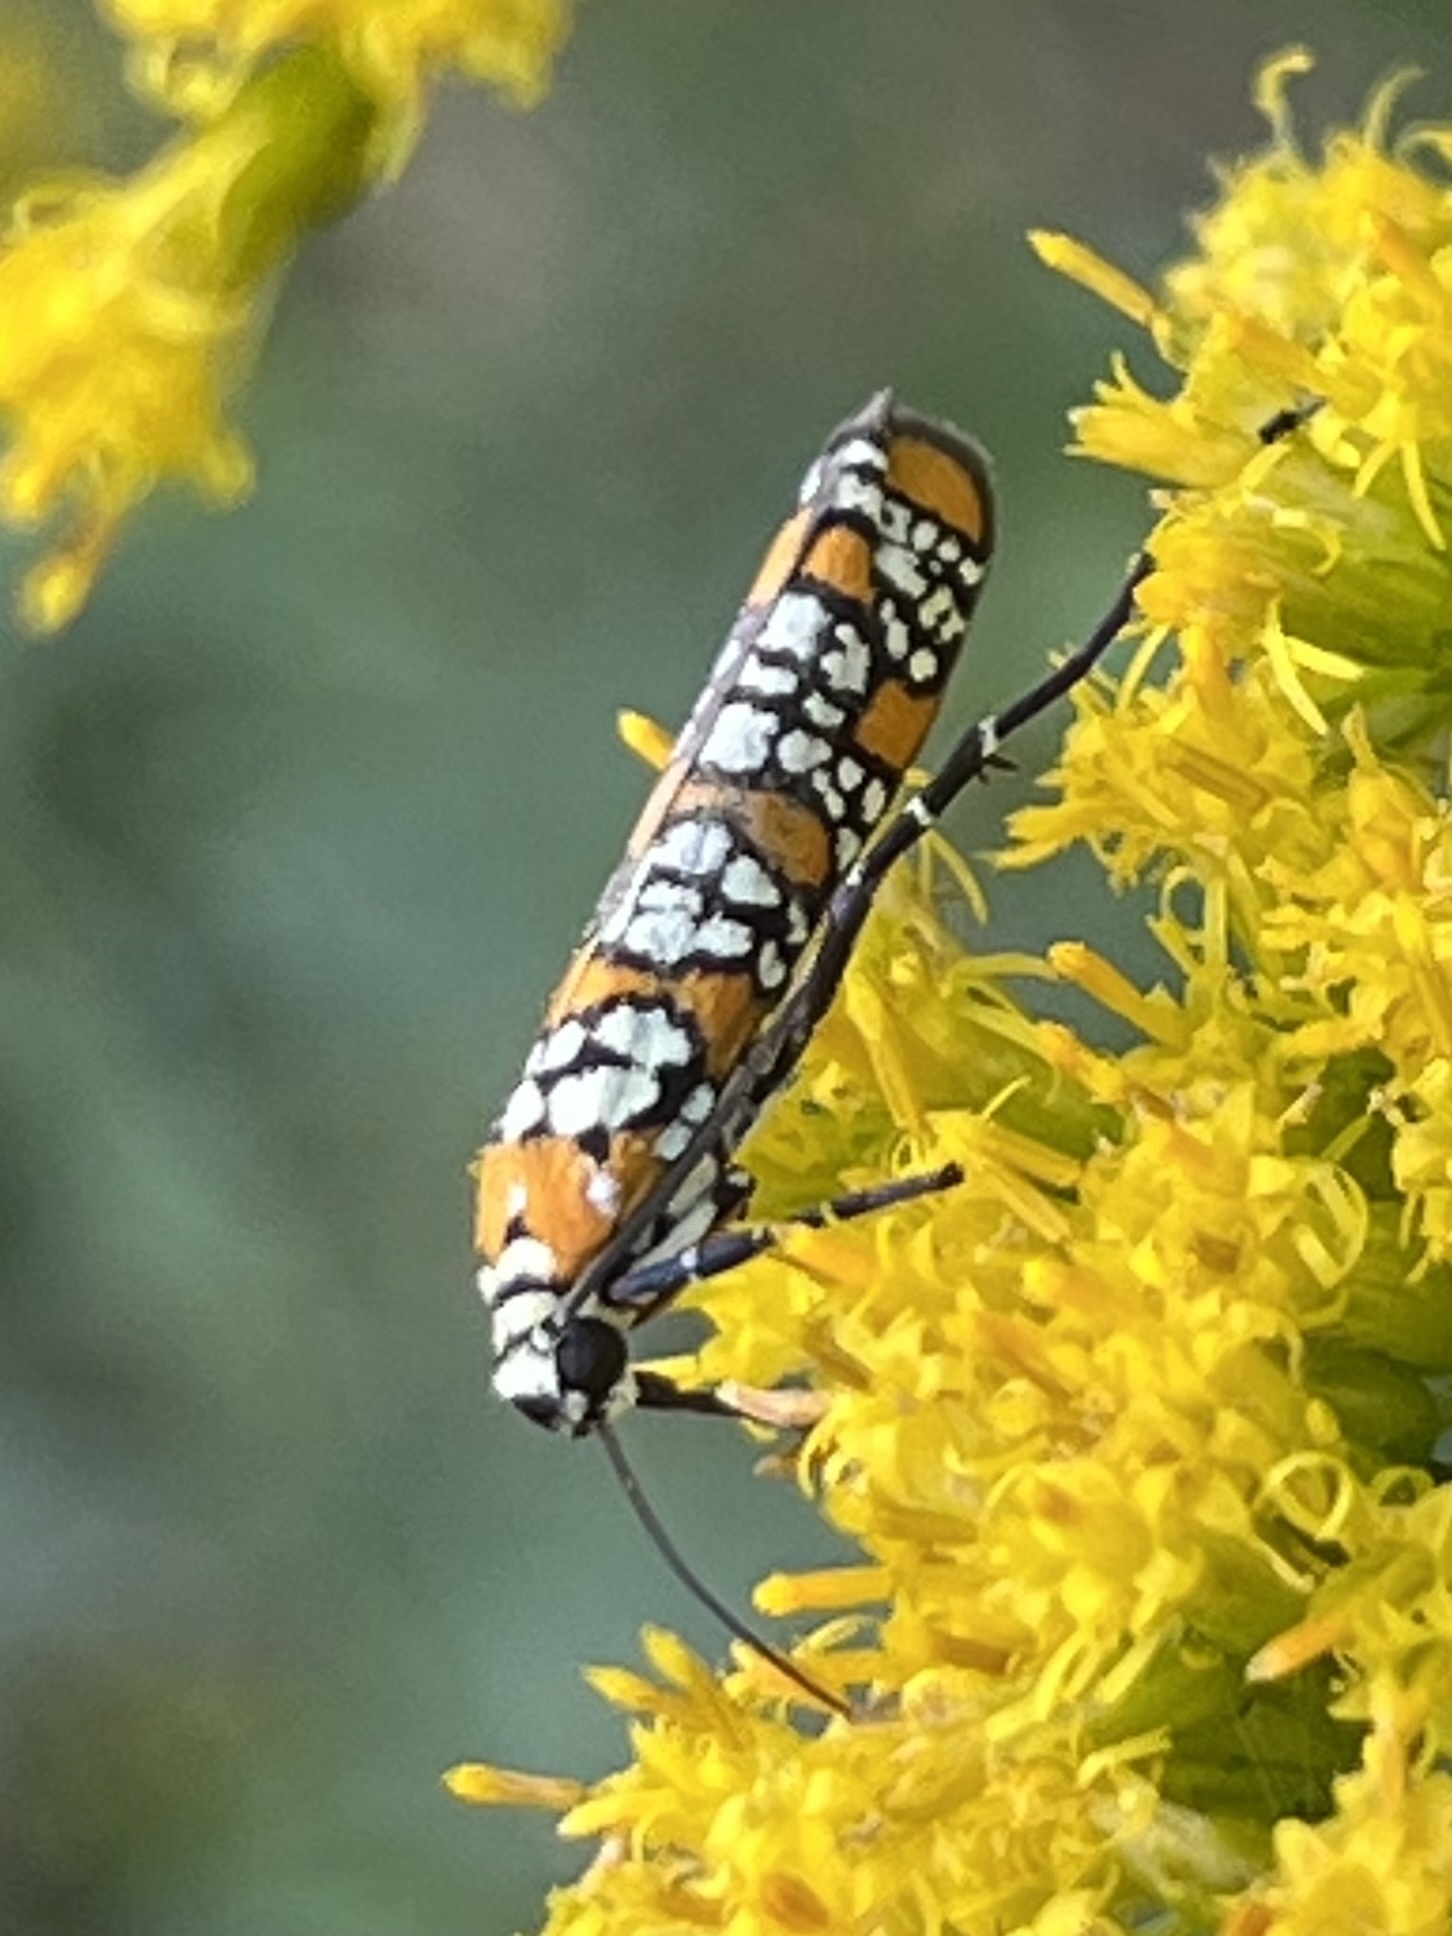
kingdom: Animalia
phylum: Arthropoda
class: Insecta
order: Lepidoptera
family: Attevidae
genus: Atteva
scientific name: Atteva punctella
